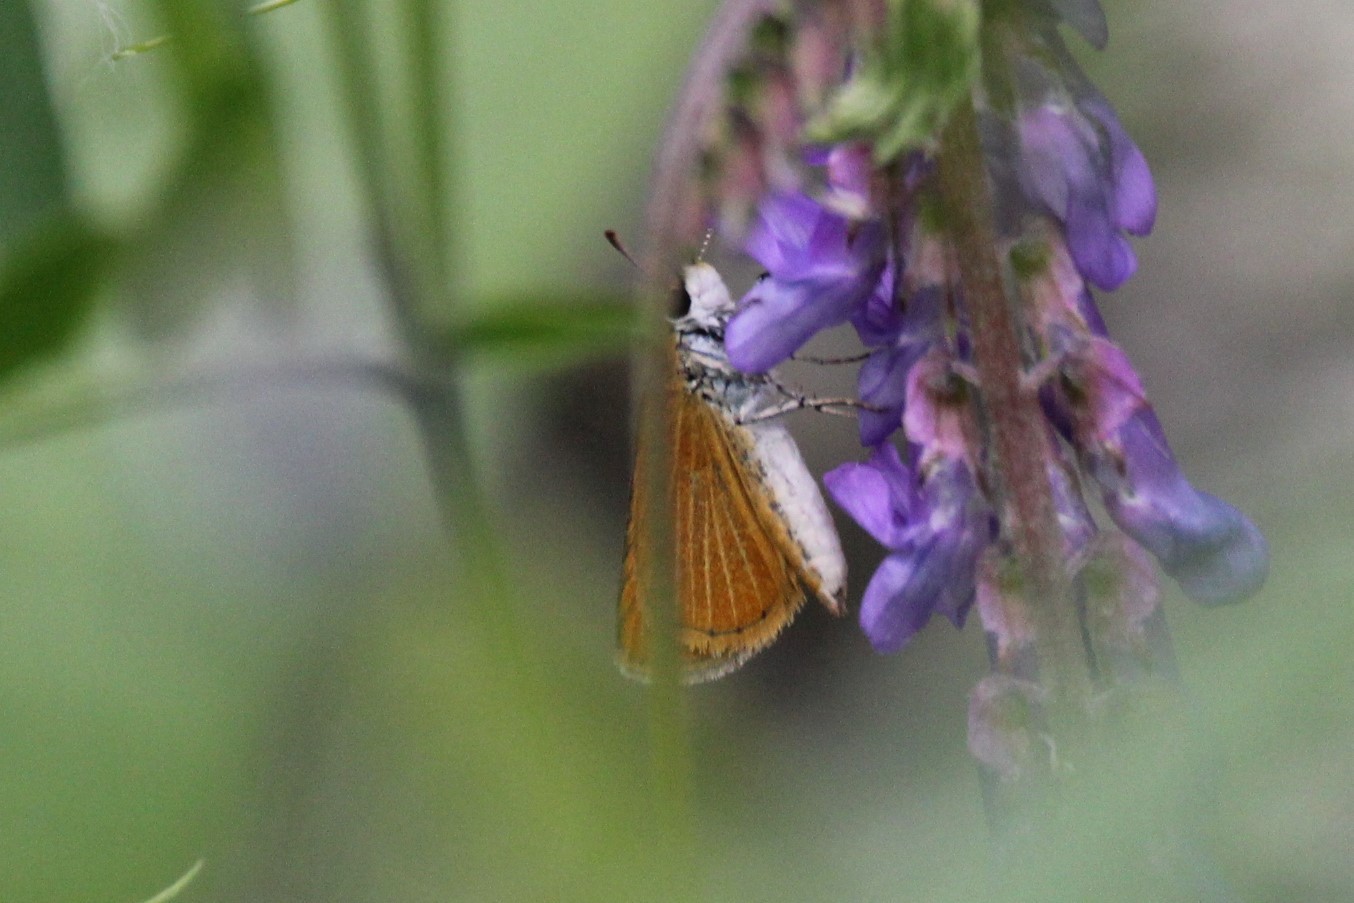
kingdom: Animalia
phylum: Arthropoda
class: Insecta
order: Lepidoptera
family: Hesperiidae
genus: Ancyloxypha
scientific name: Ancyloxypha numitor
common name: Least skipper
